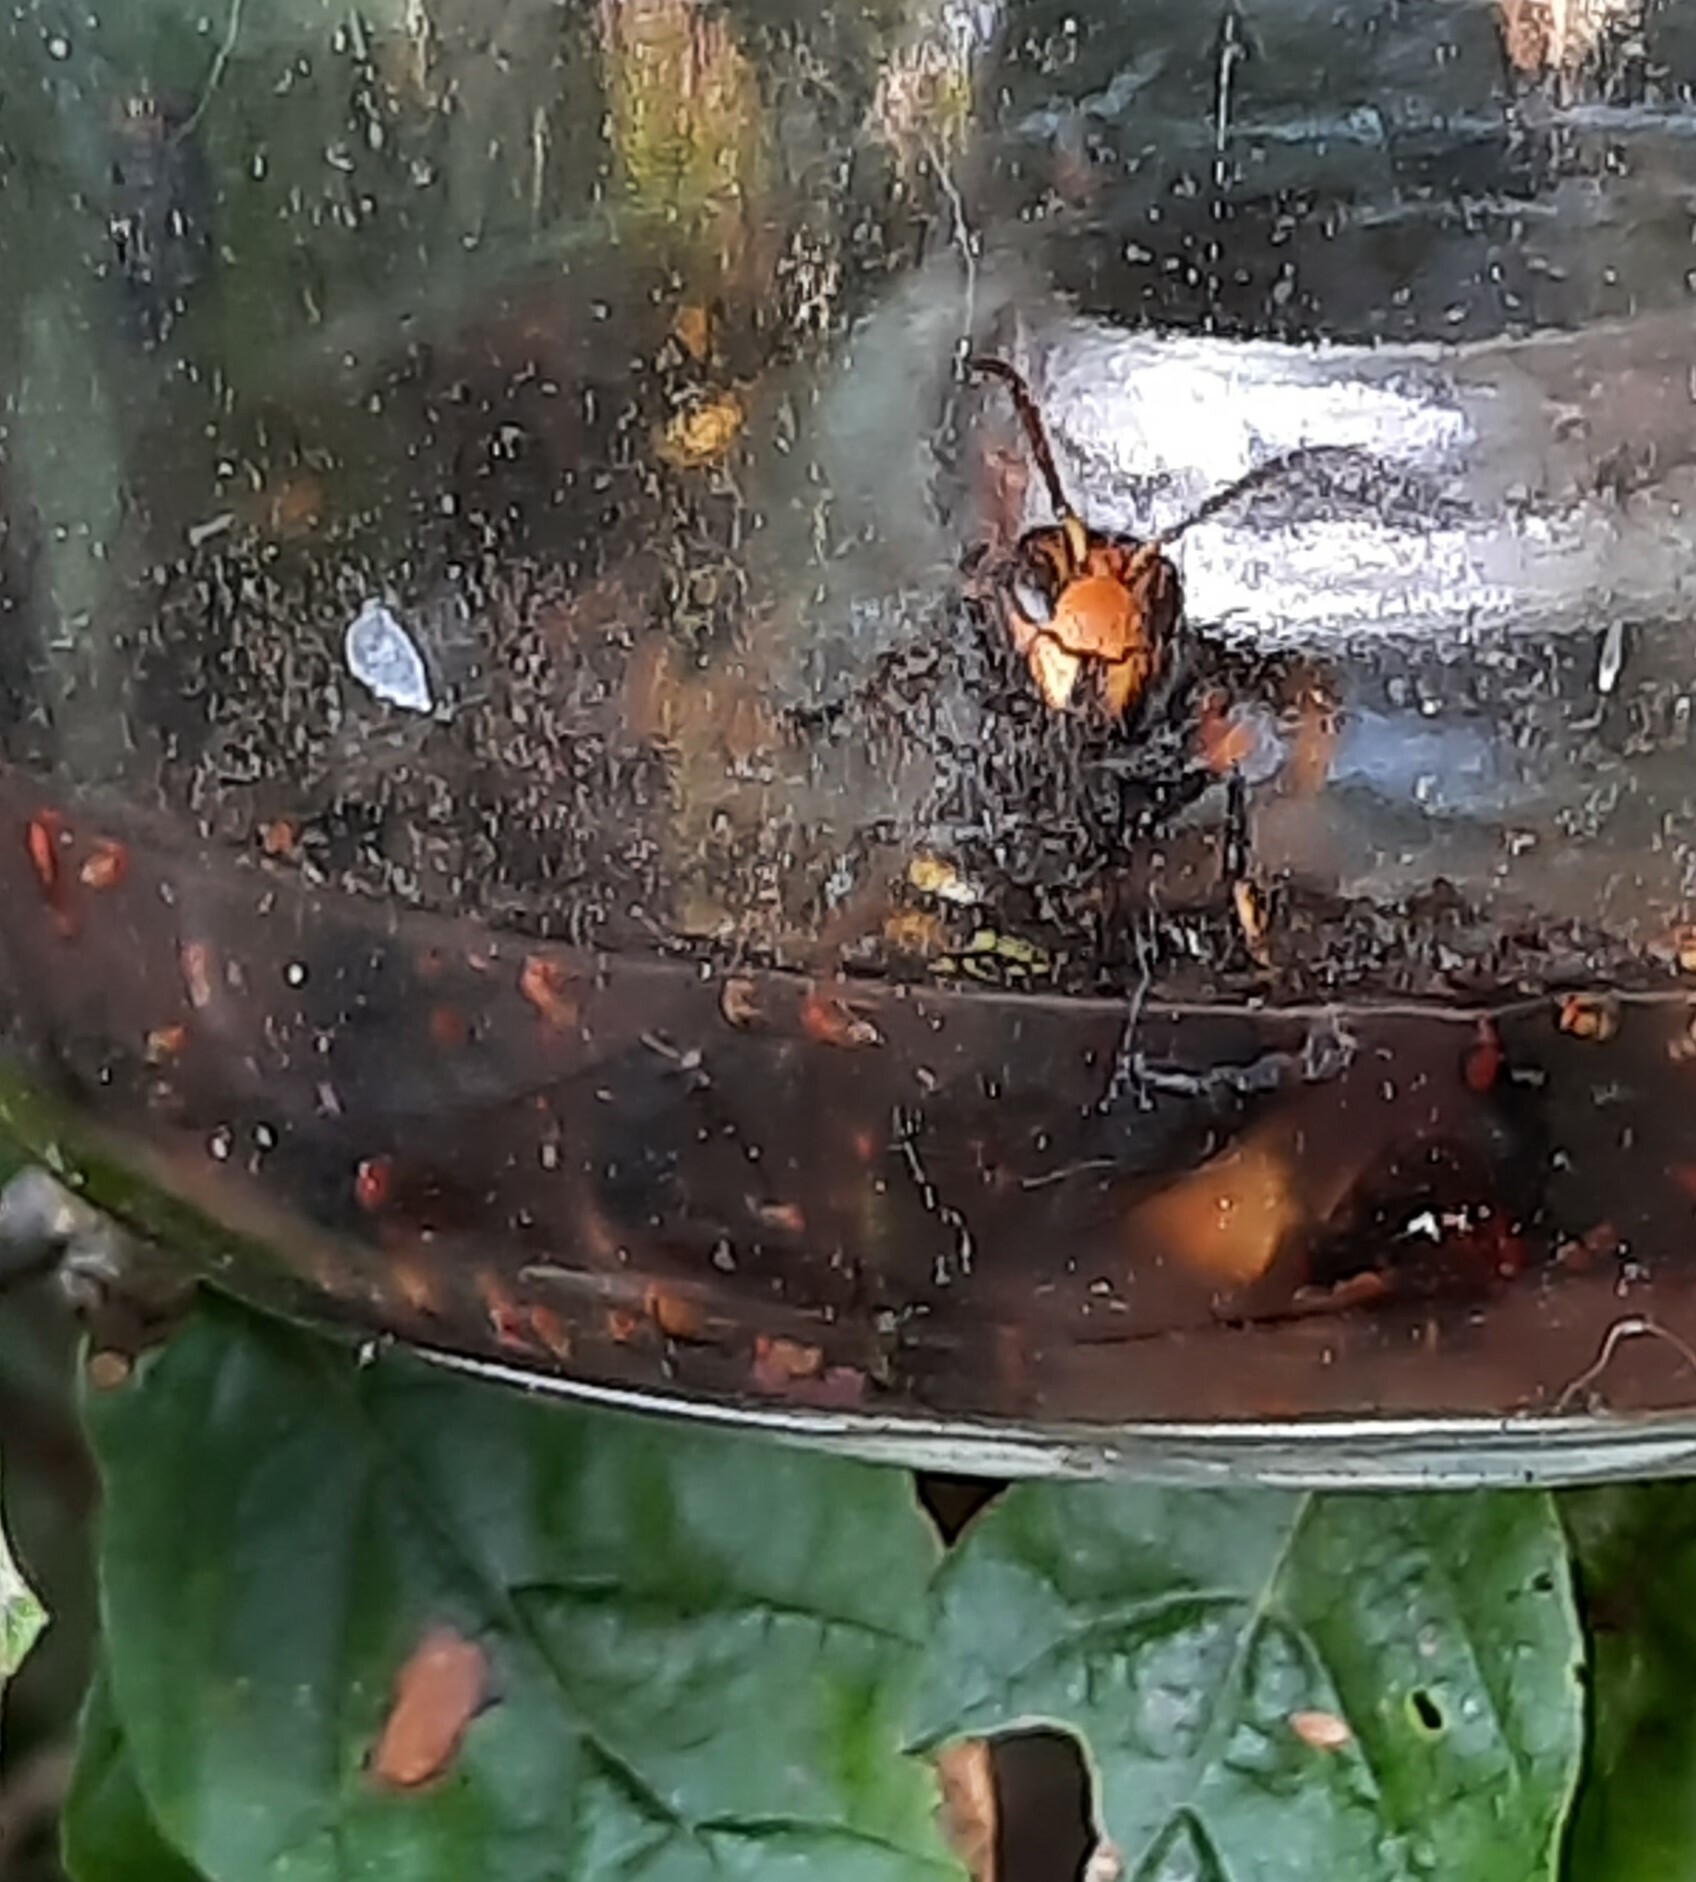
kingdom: Animalia
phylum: Arthropoda
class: Insecta
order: Hymenoptera
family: Vespidae
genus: Vespa
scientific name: Vespa velutina
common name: Asian hornet
